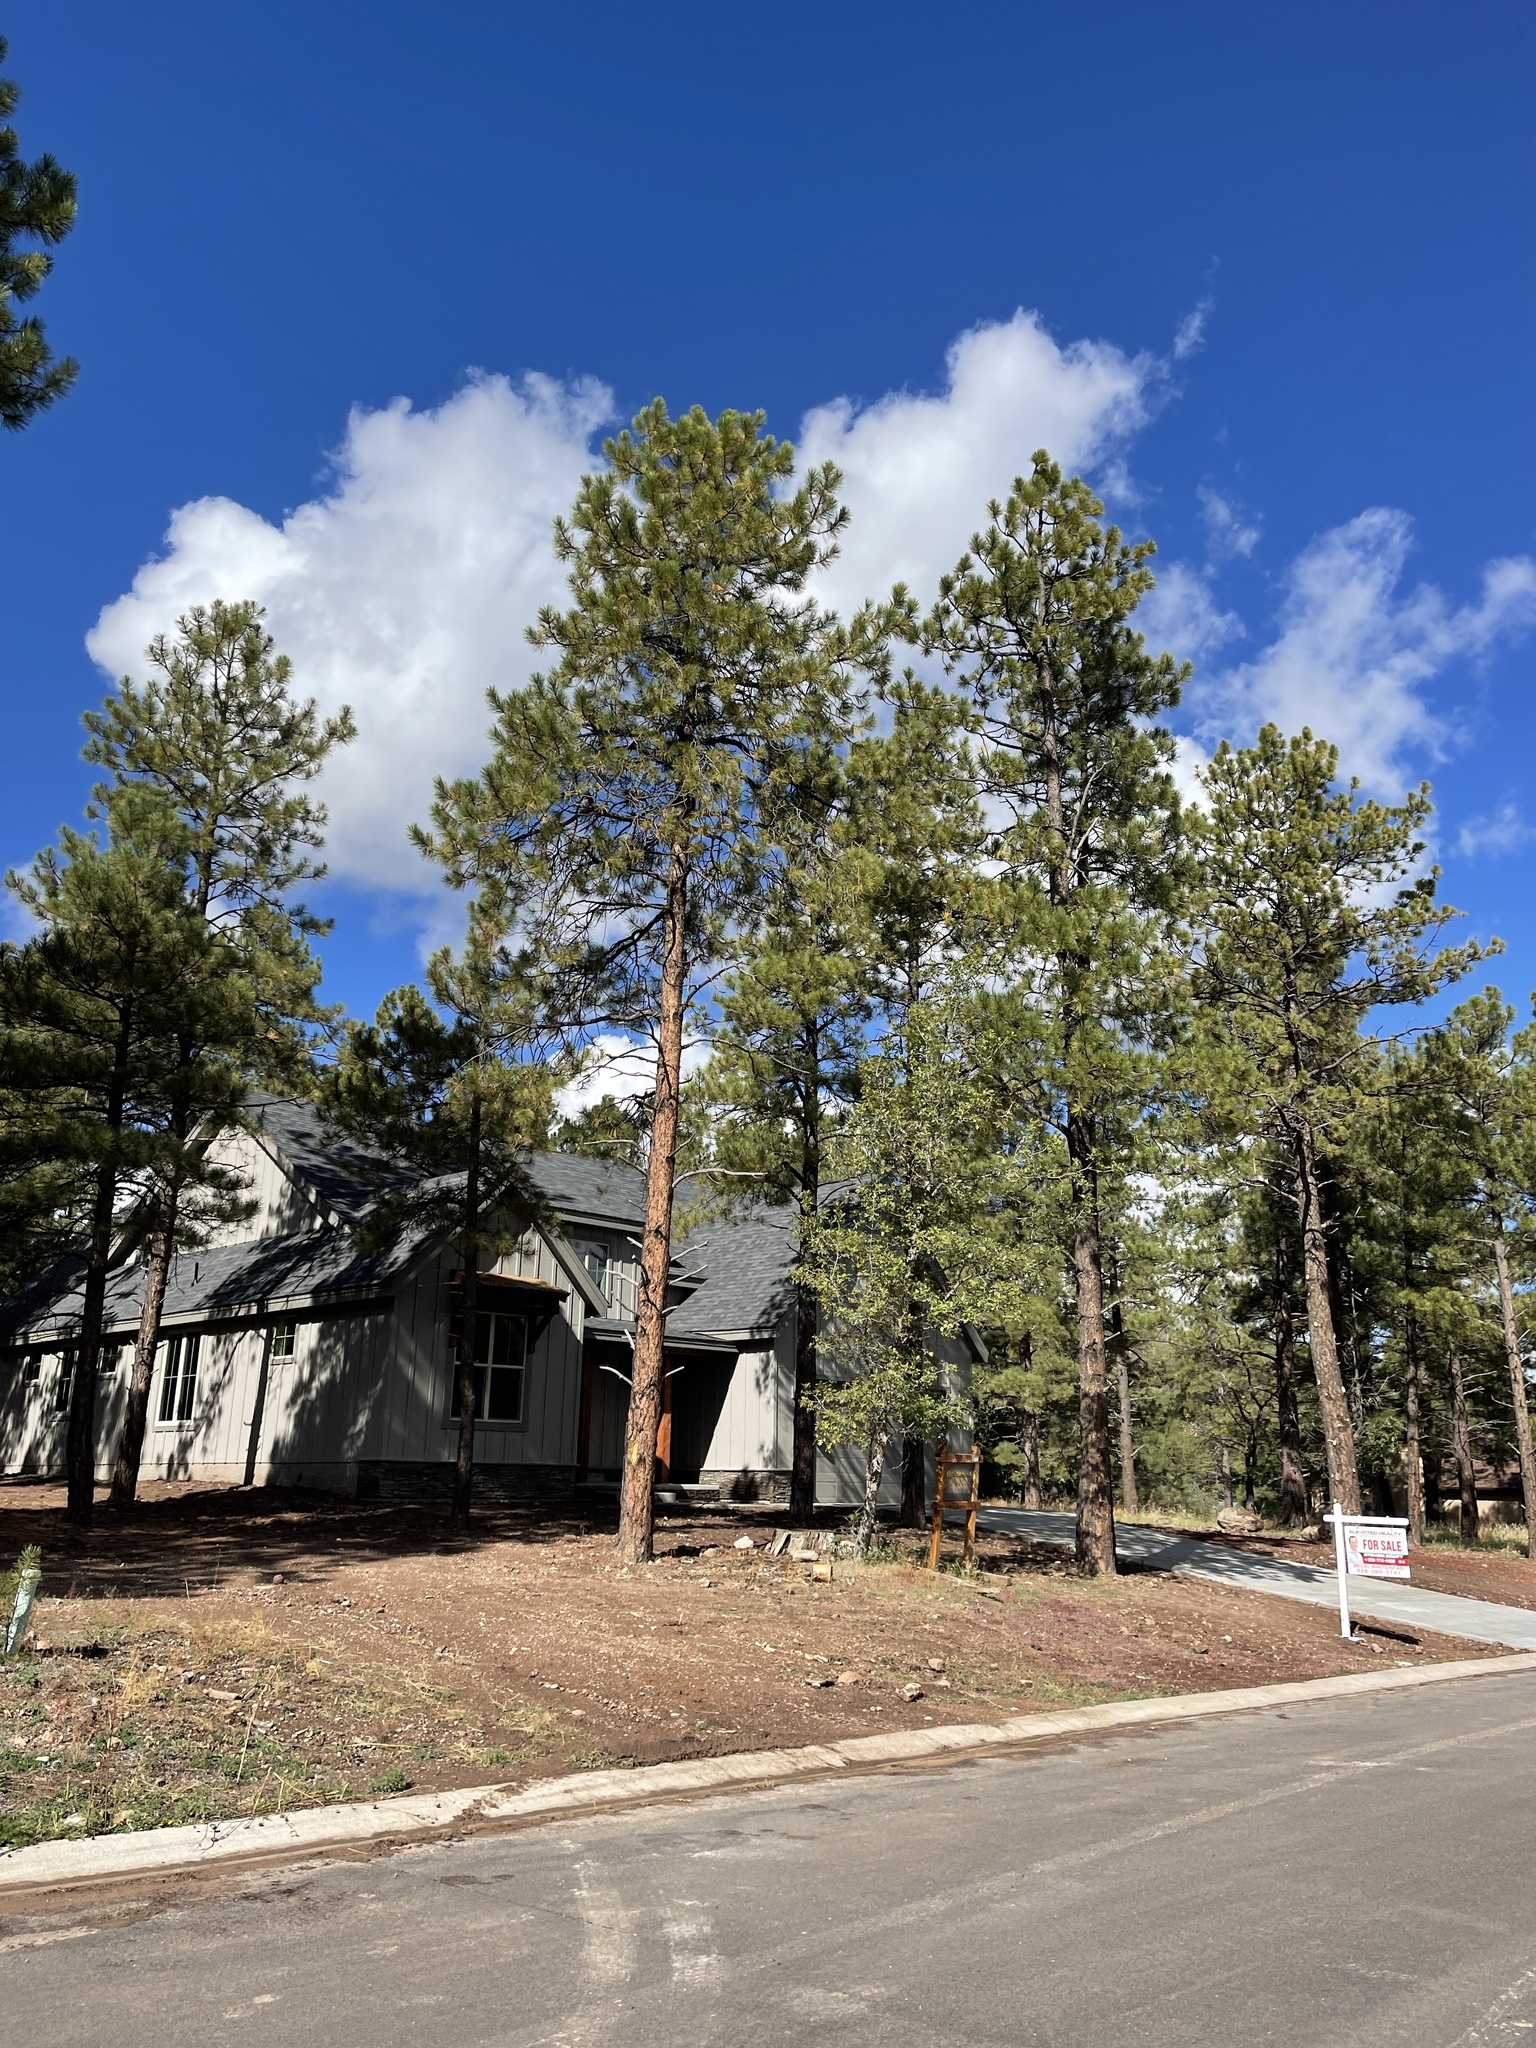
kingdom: Plantae
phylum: Tracheophyta
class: Pinopsida
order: Pinales
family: Pinaceae
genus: Pinus
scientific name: Pinus ponderosa
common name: Western yellow-pine
